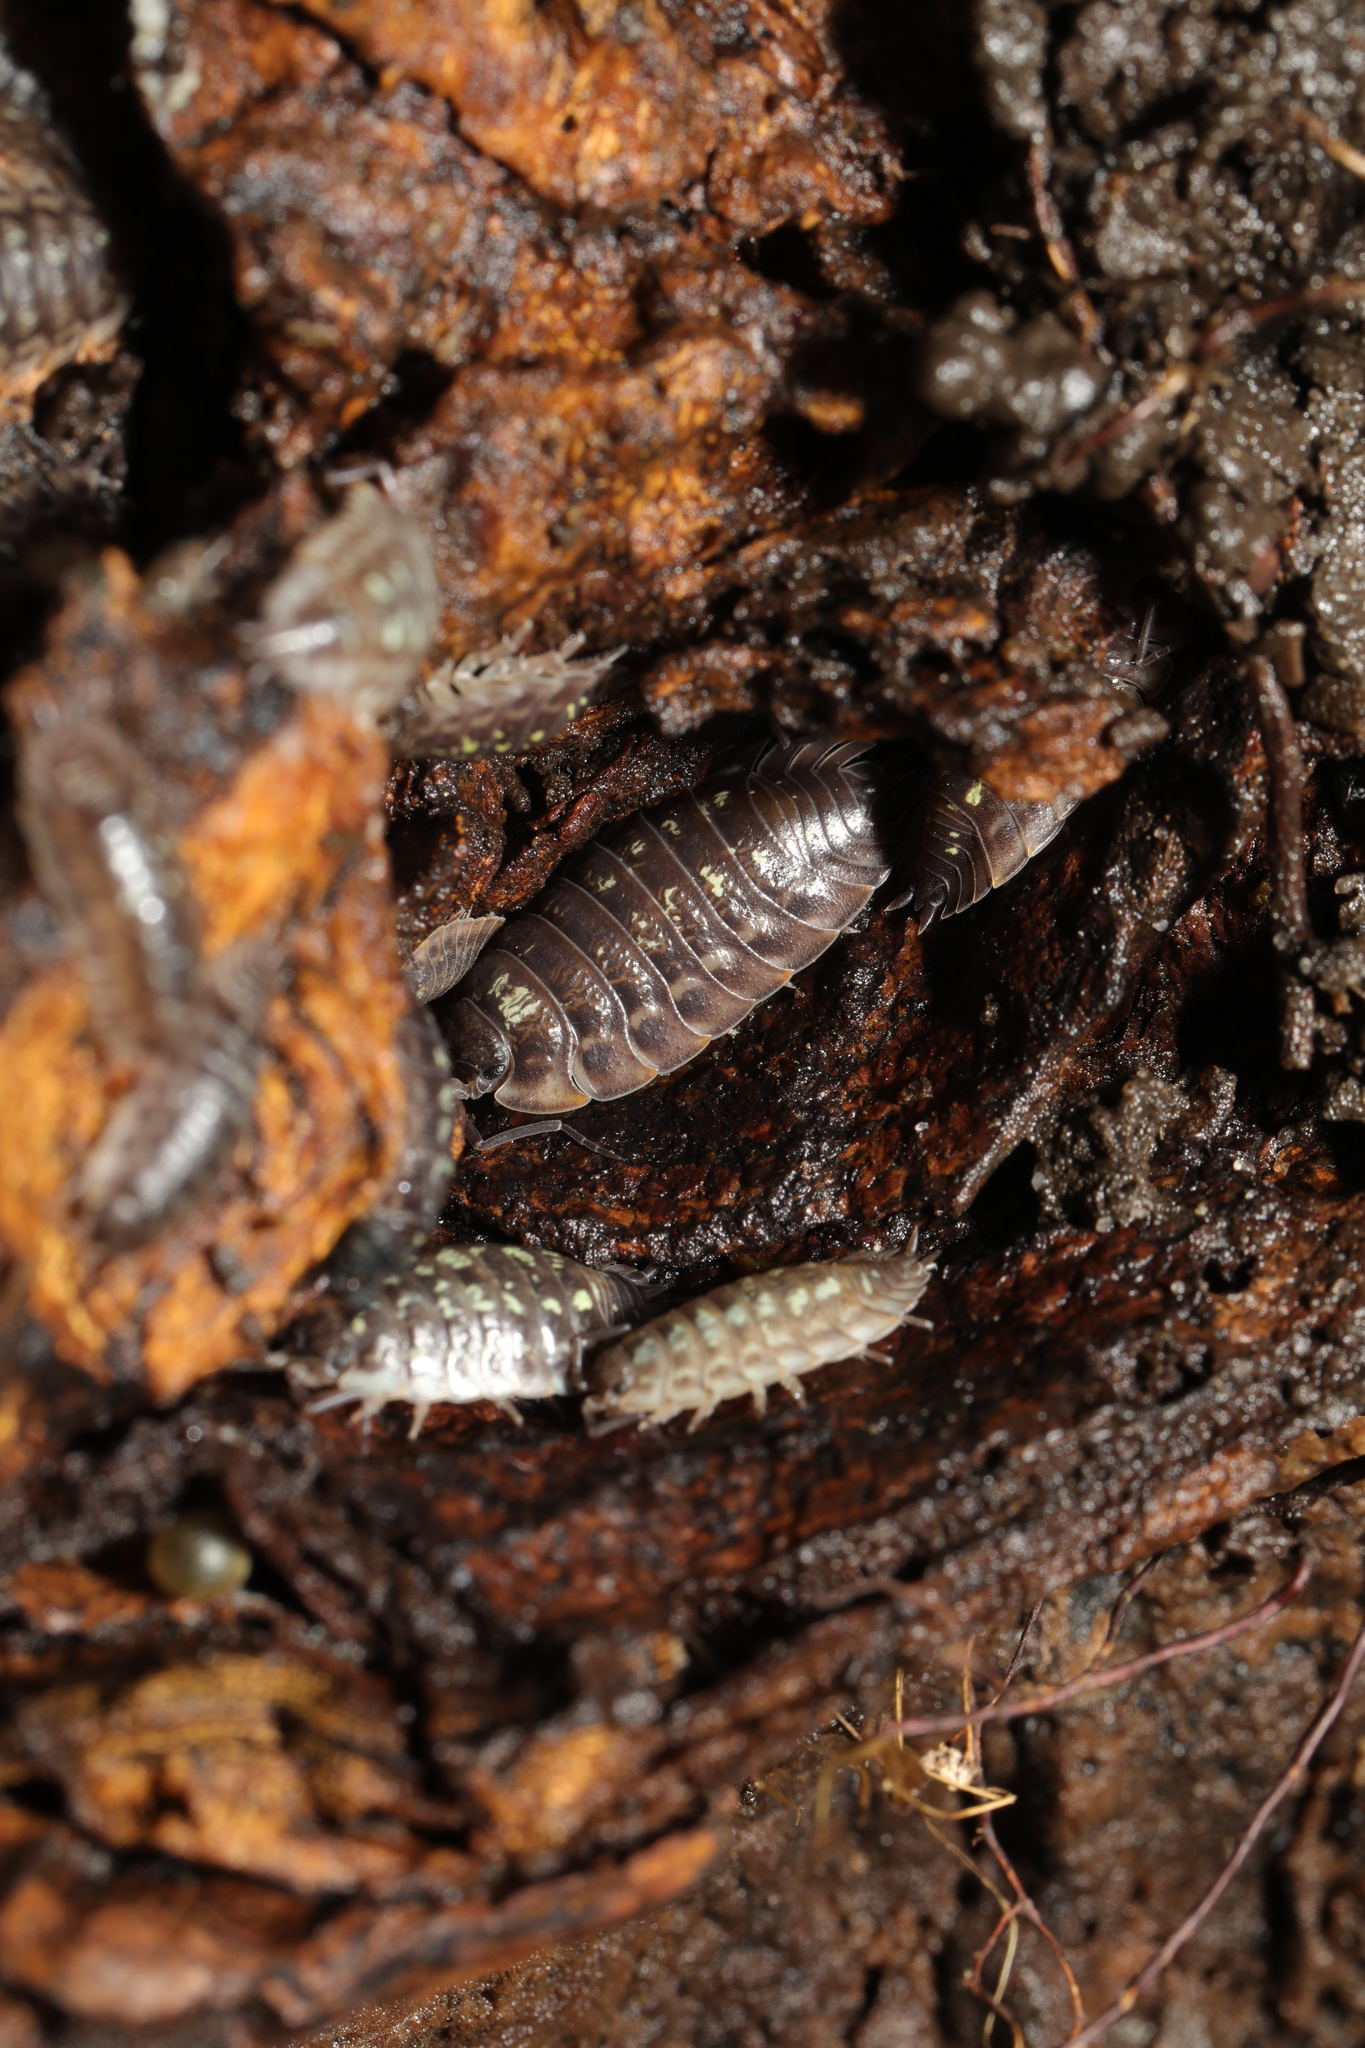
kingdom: Animalia
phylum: Arthropoda
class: Malacostraca
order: Isopoda
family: Oniscidae
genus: Oniscus
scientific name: Oniscus asellus
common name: Common shiny woodlouse
